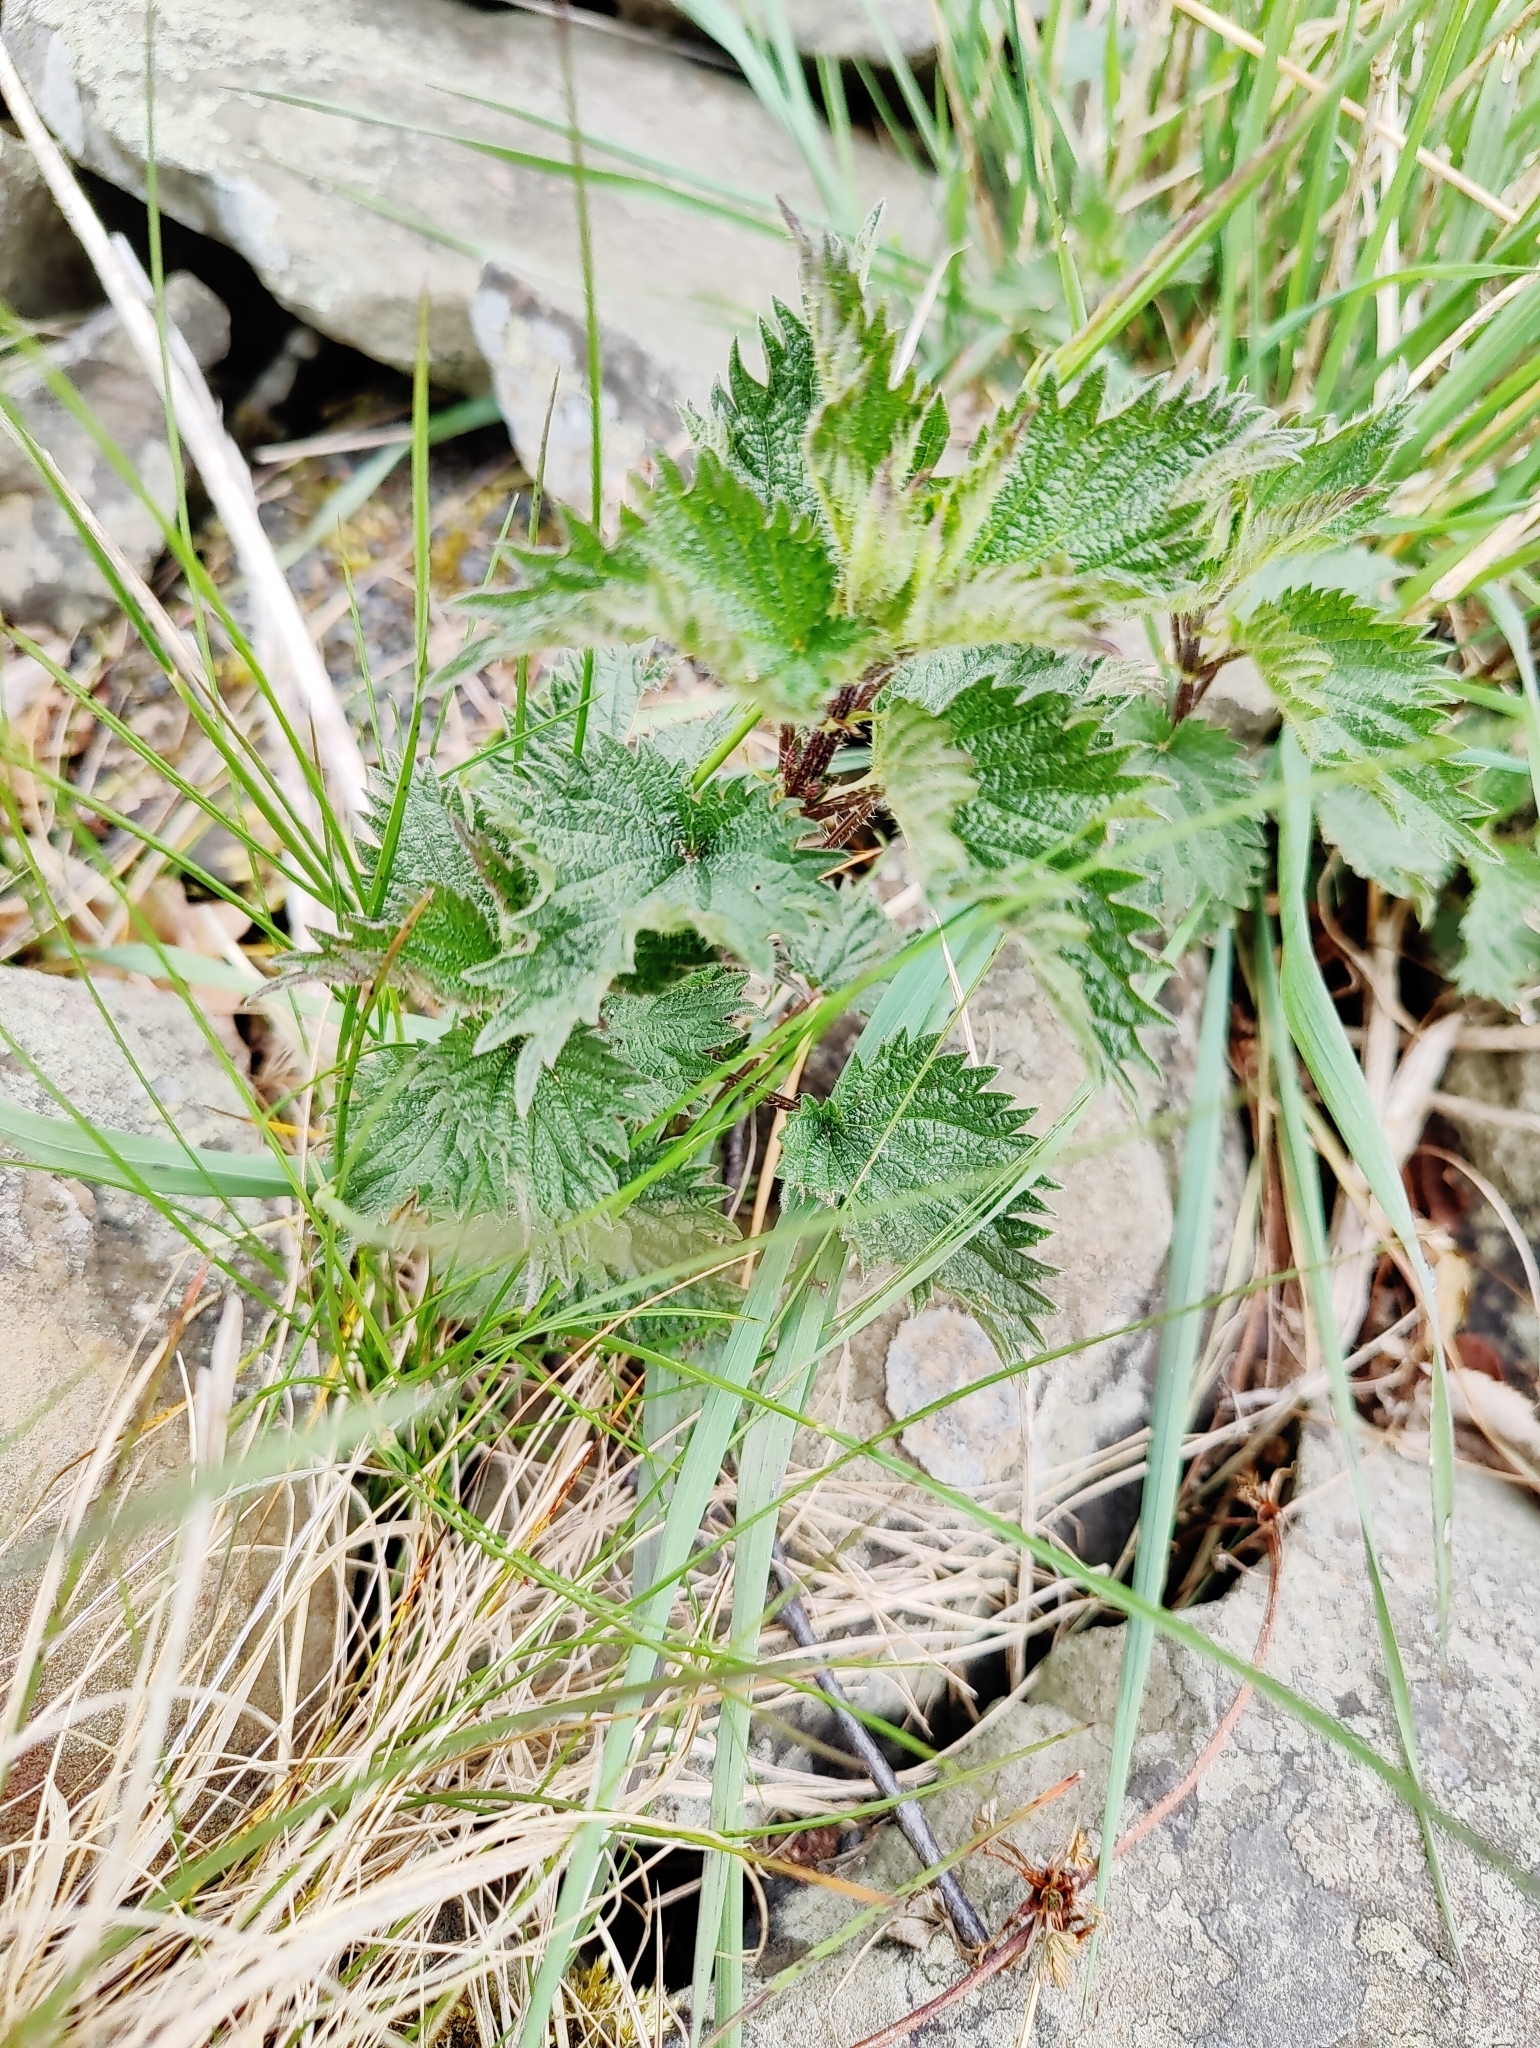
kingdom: Plantae
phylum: Tracheophyta
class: Magnoliopsida
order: Rosales
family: Urticaceae
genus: Urtica
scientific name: Urtica dioica
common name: Common nettle
